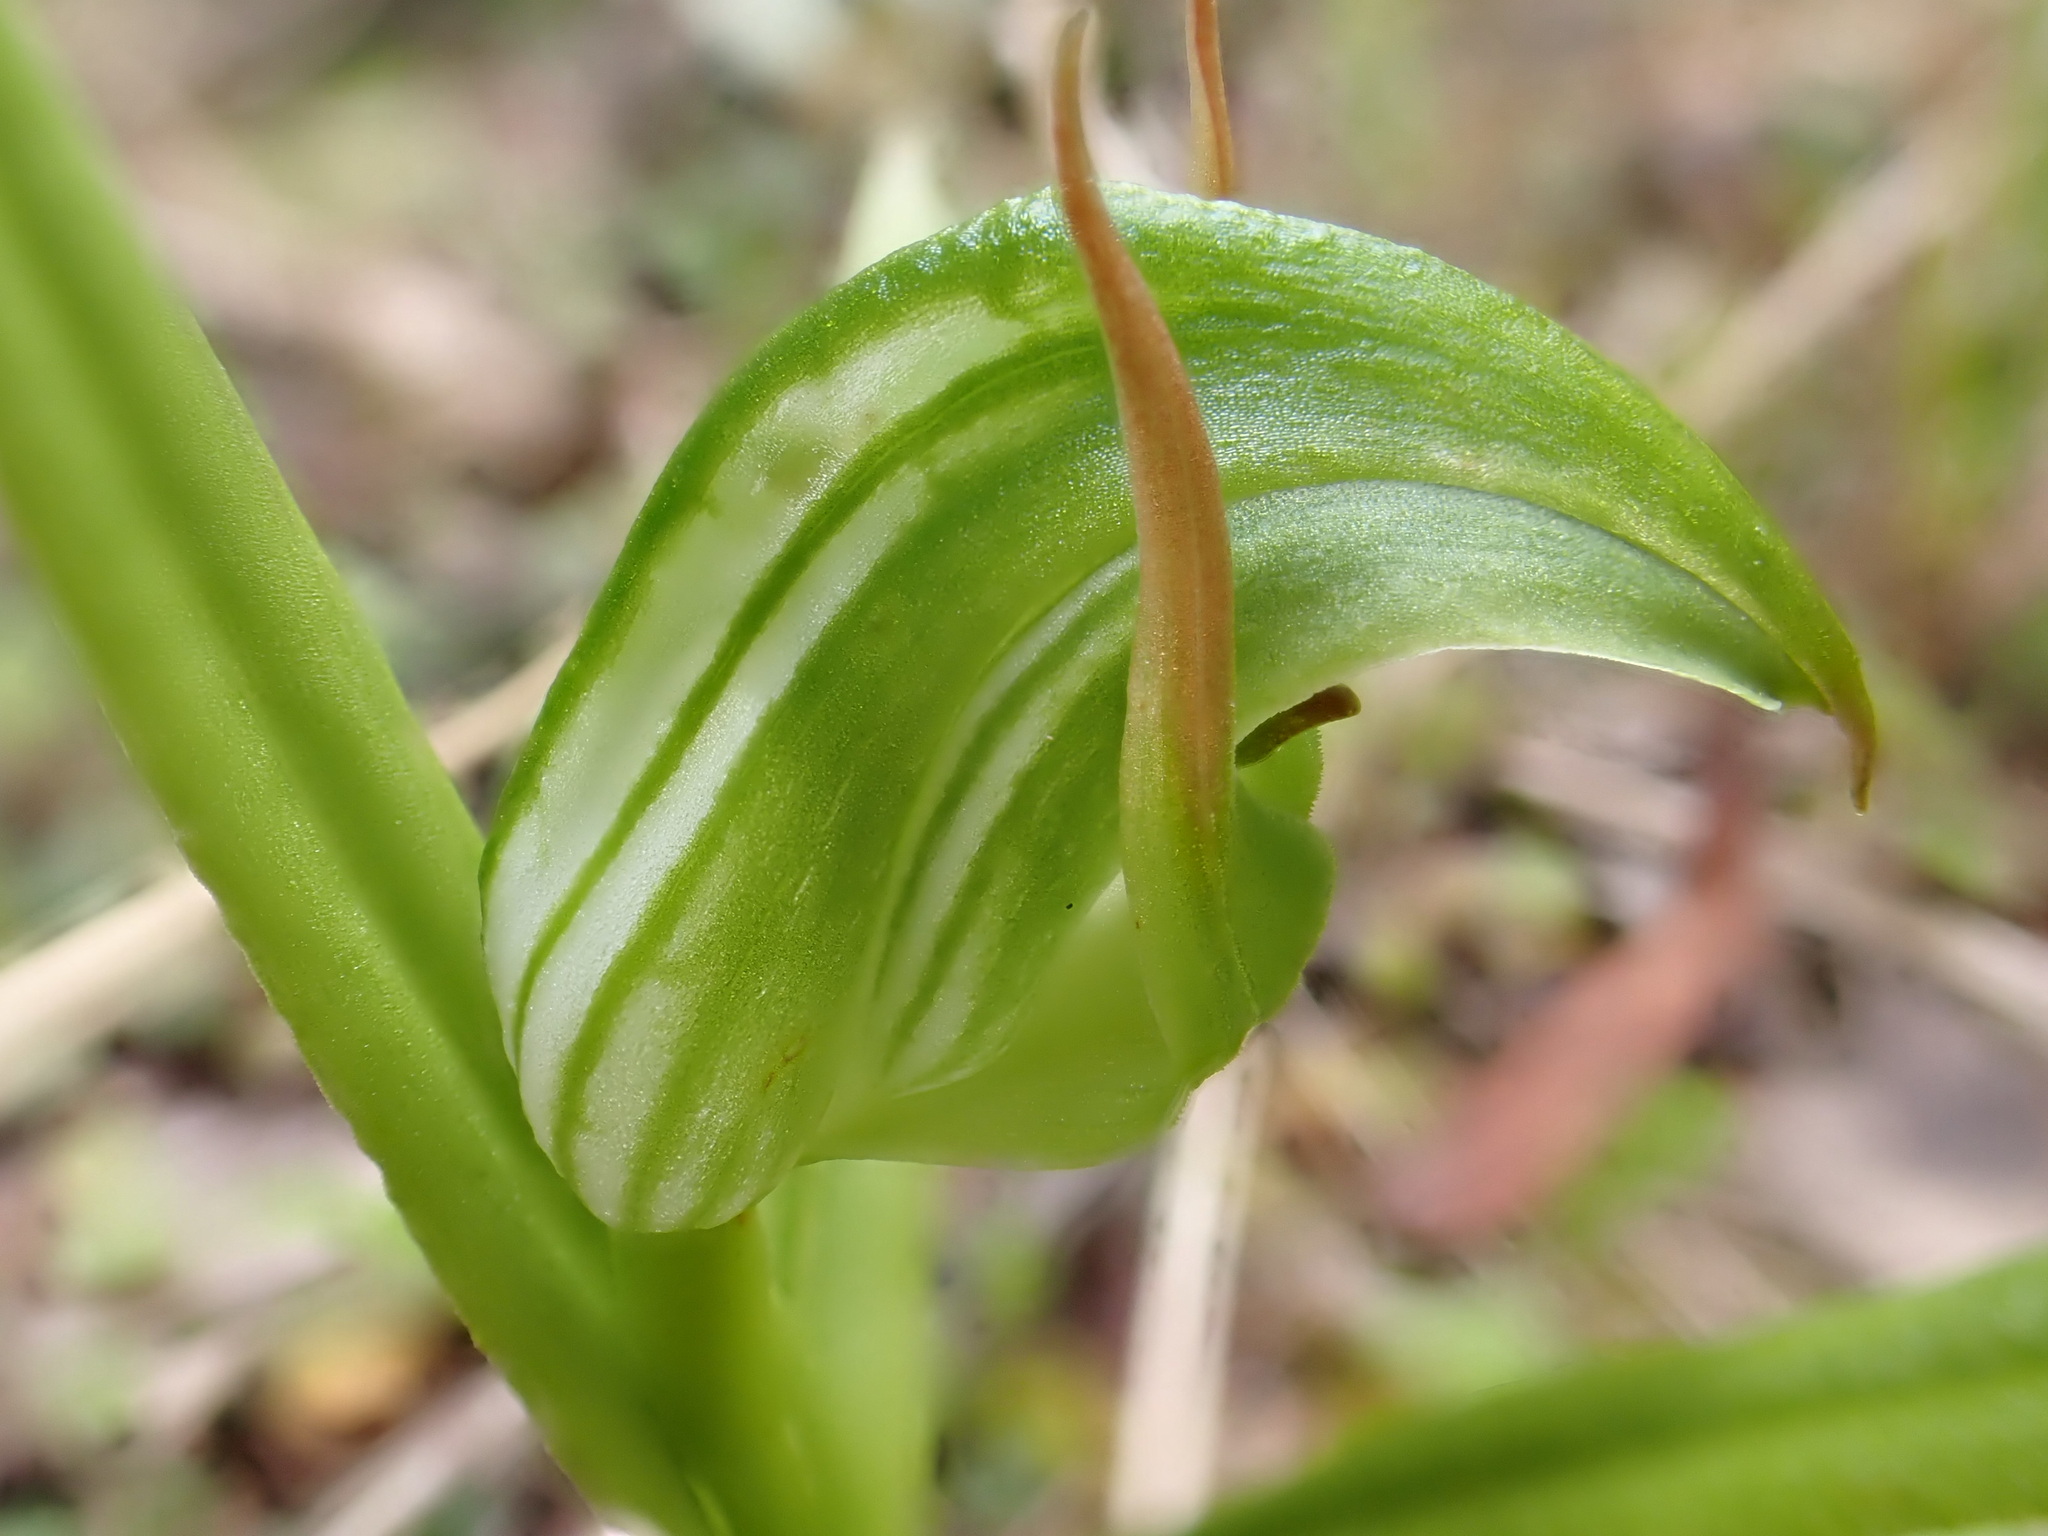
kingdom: Plantae
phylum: Tracheophyta
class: Liliopsida
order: Asparagales
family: Orchidaceae
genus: Pterostylis
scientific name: Pterostylis montana
